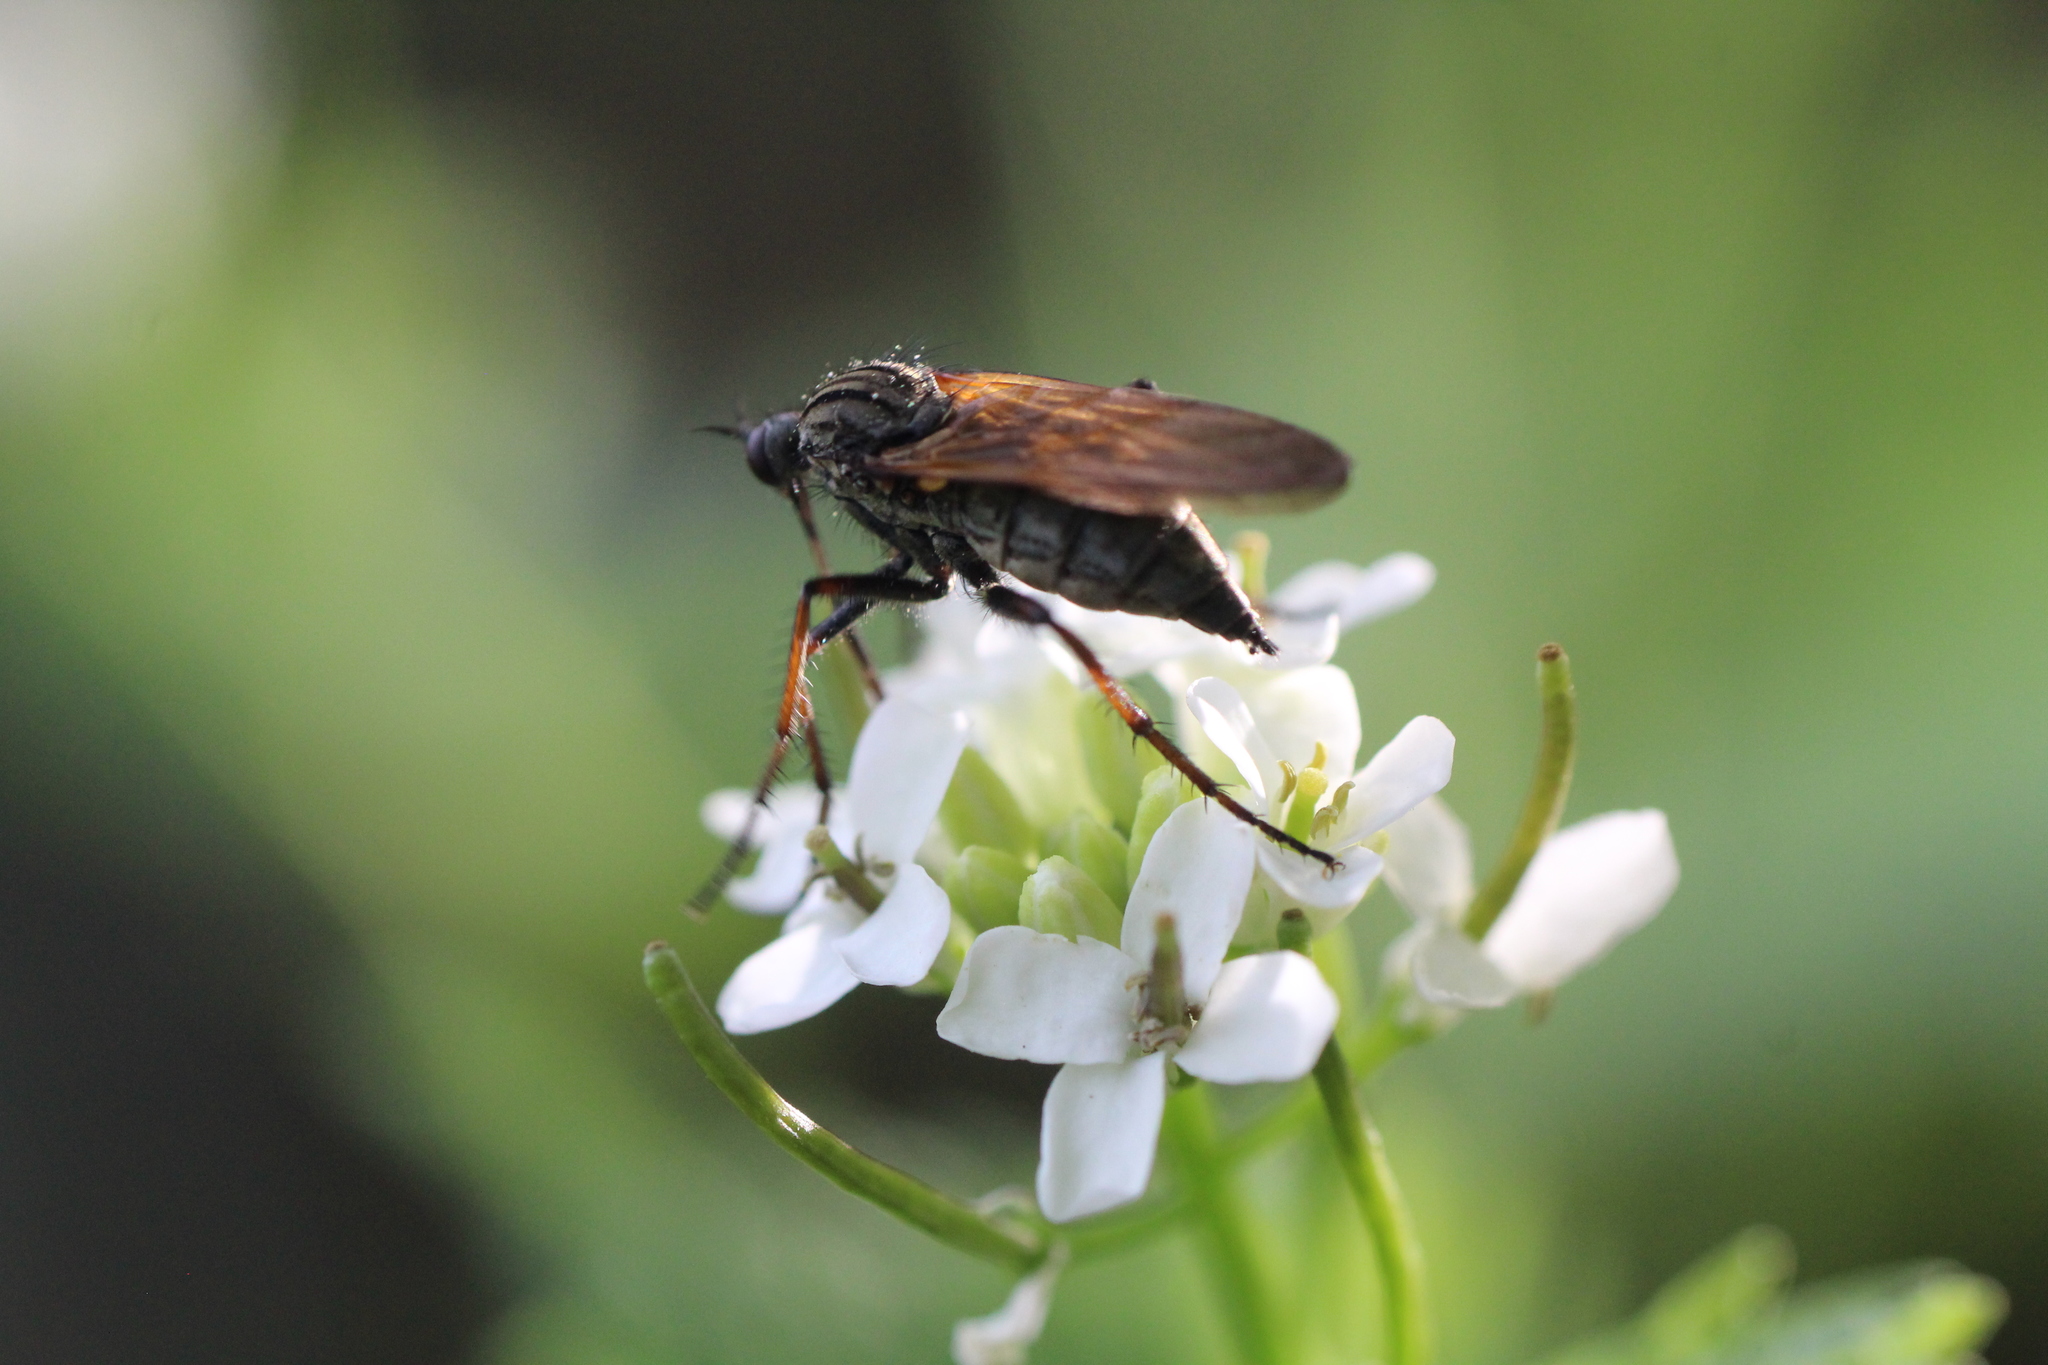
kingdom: Animalia
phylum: Arthropoda
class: Insecta
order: Diptera
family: Empididae
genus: Empis
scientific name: Empis tessellata
